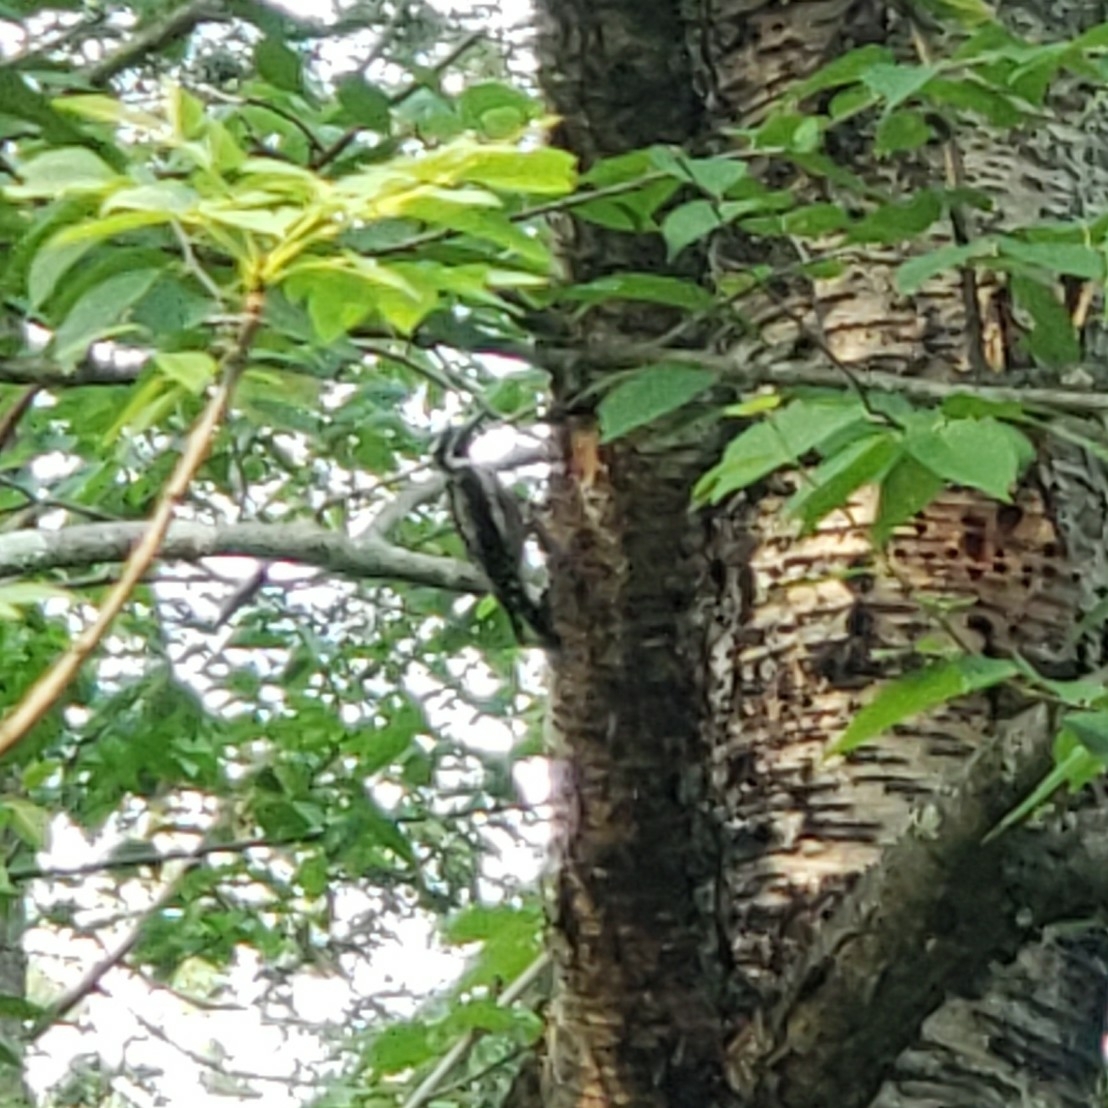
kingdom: Animalia
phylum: Chordata
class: Aves
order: Piciformes
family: Picidae
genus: Sphyrapicus
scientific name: Sphyrapicus varius
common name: Yellow-bellied sapsucker
